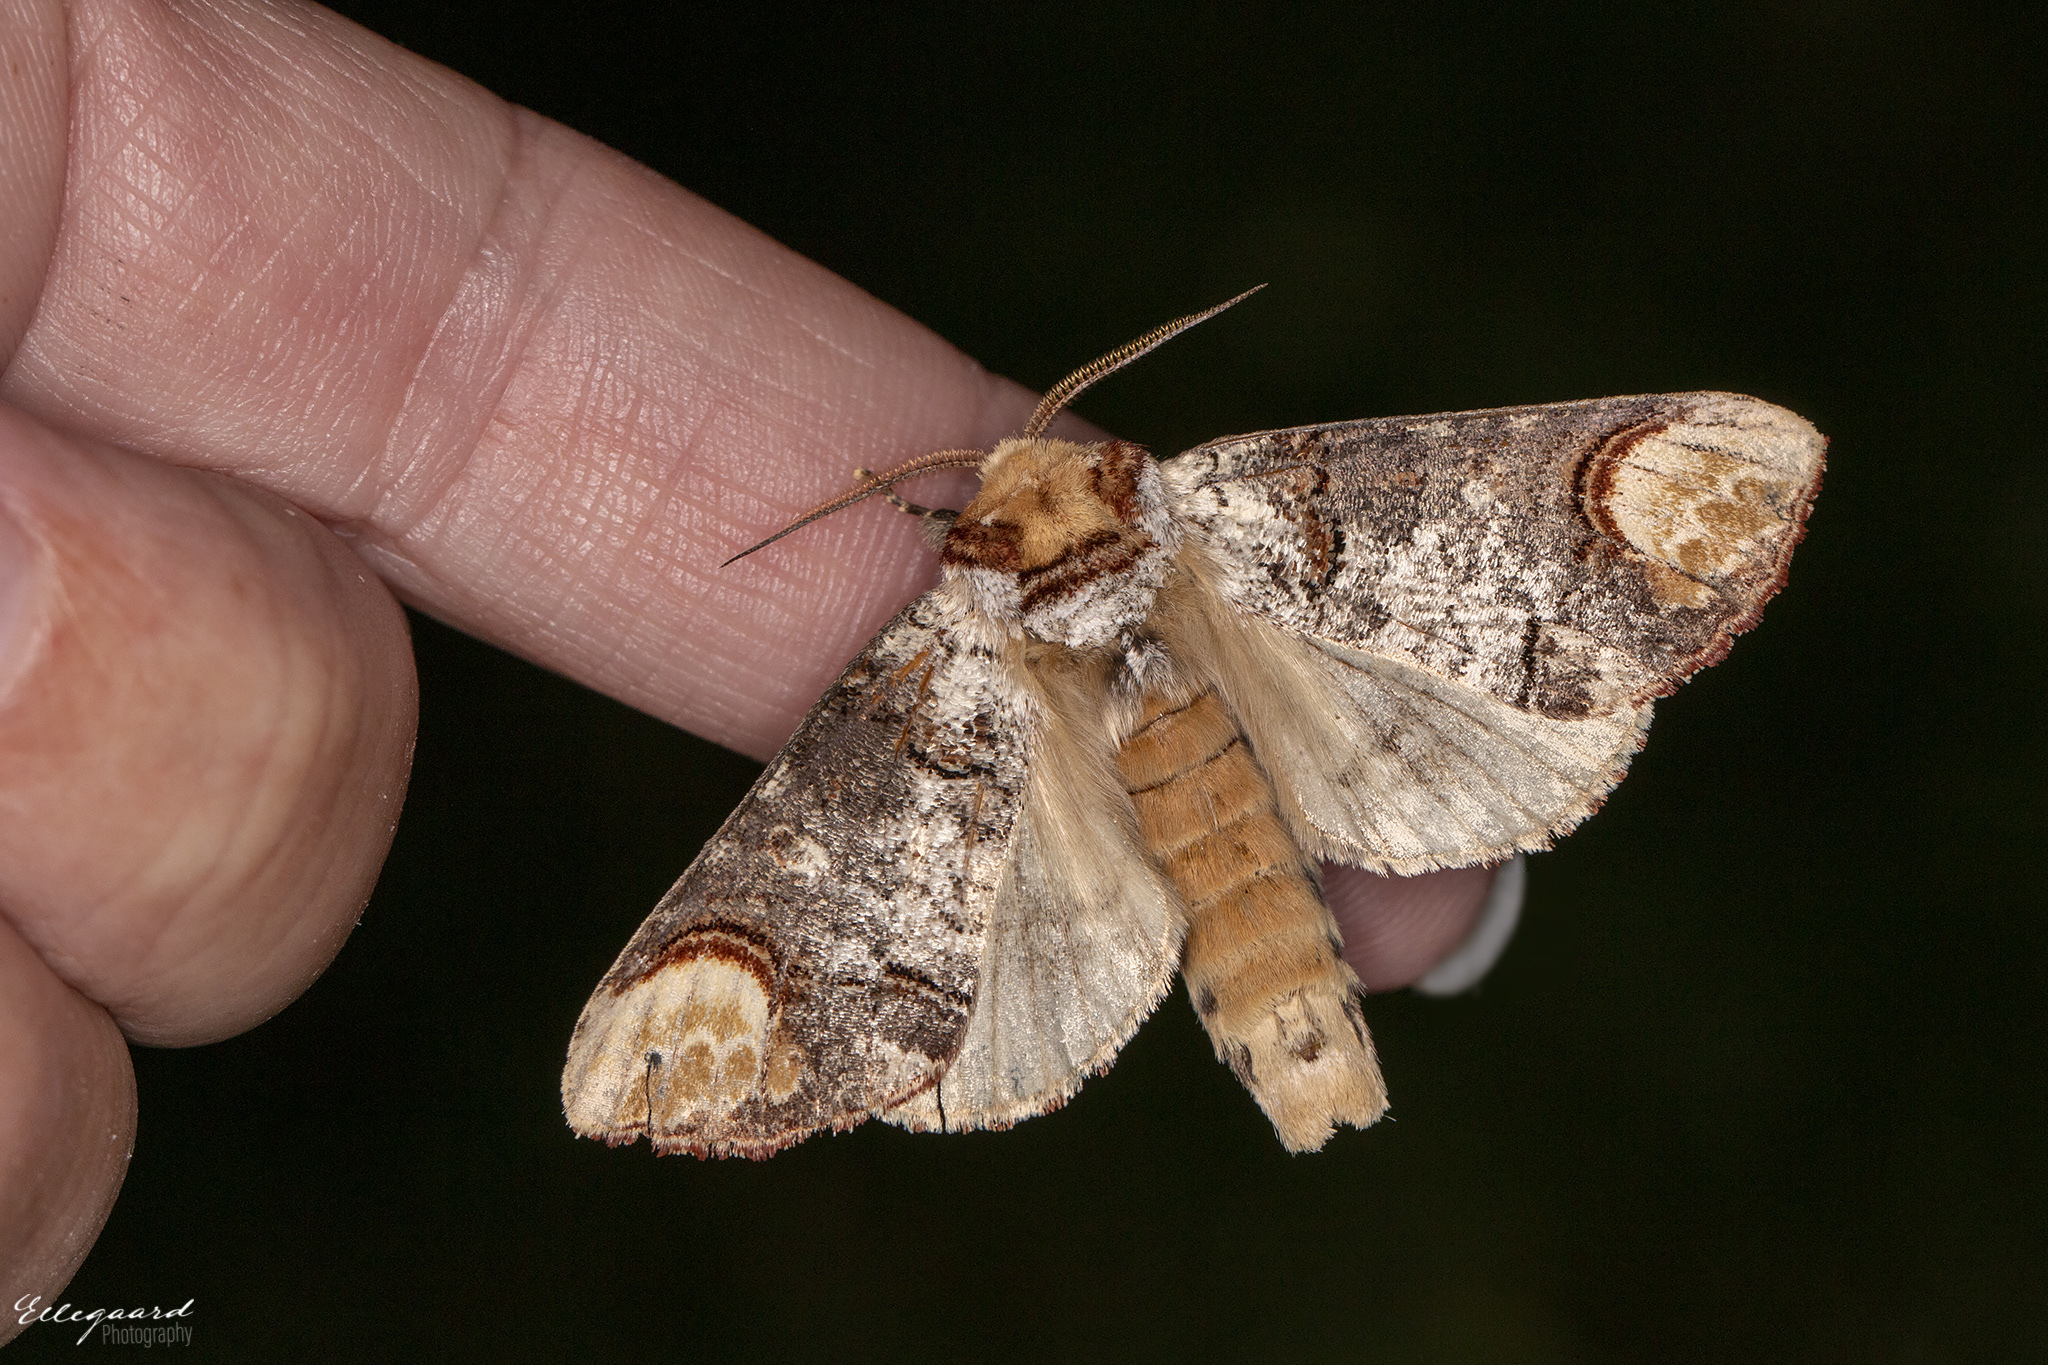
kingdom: Animalia
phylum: Arthropoda
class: Insecta
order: Lepidoptera
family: Notodontidae
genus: Phalera
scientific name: Phalera bucephala
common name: Buff-tip
